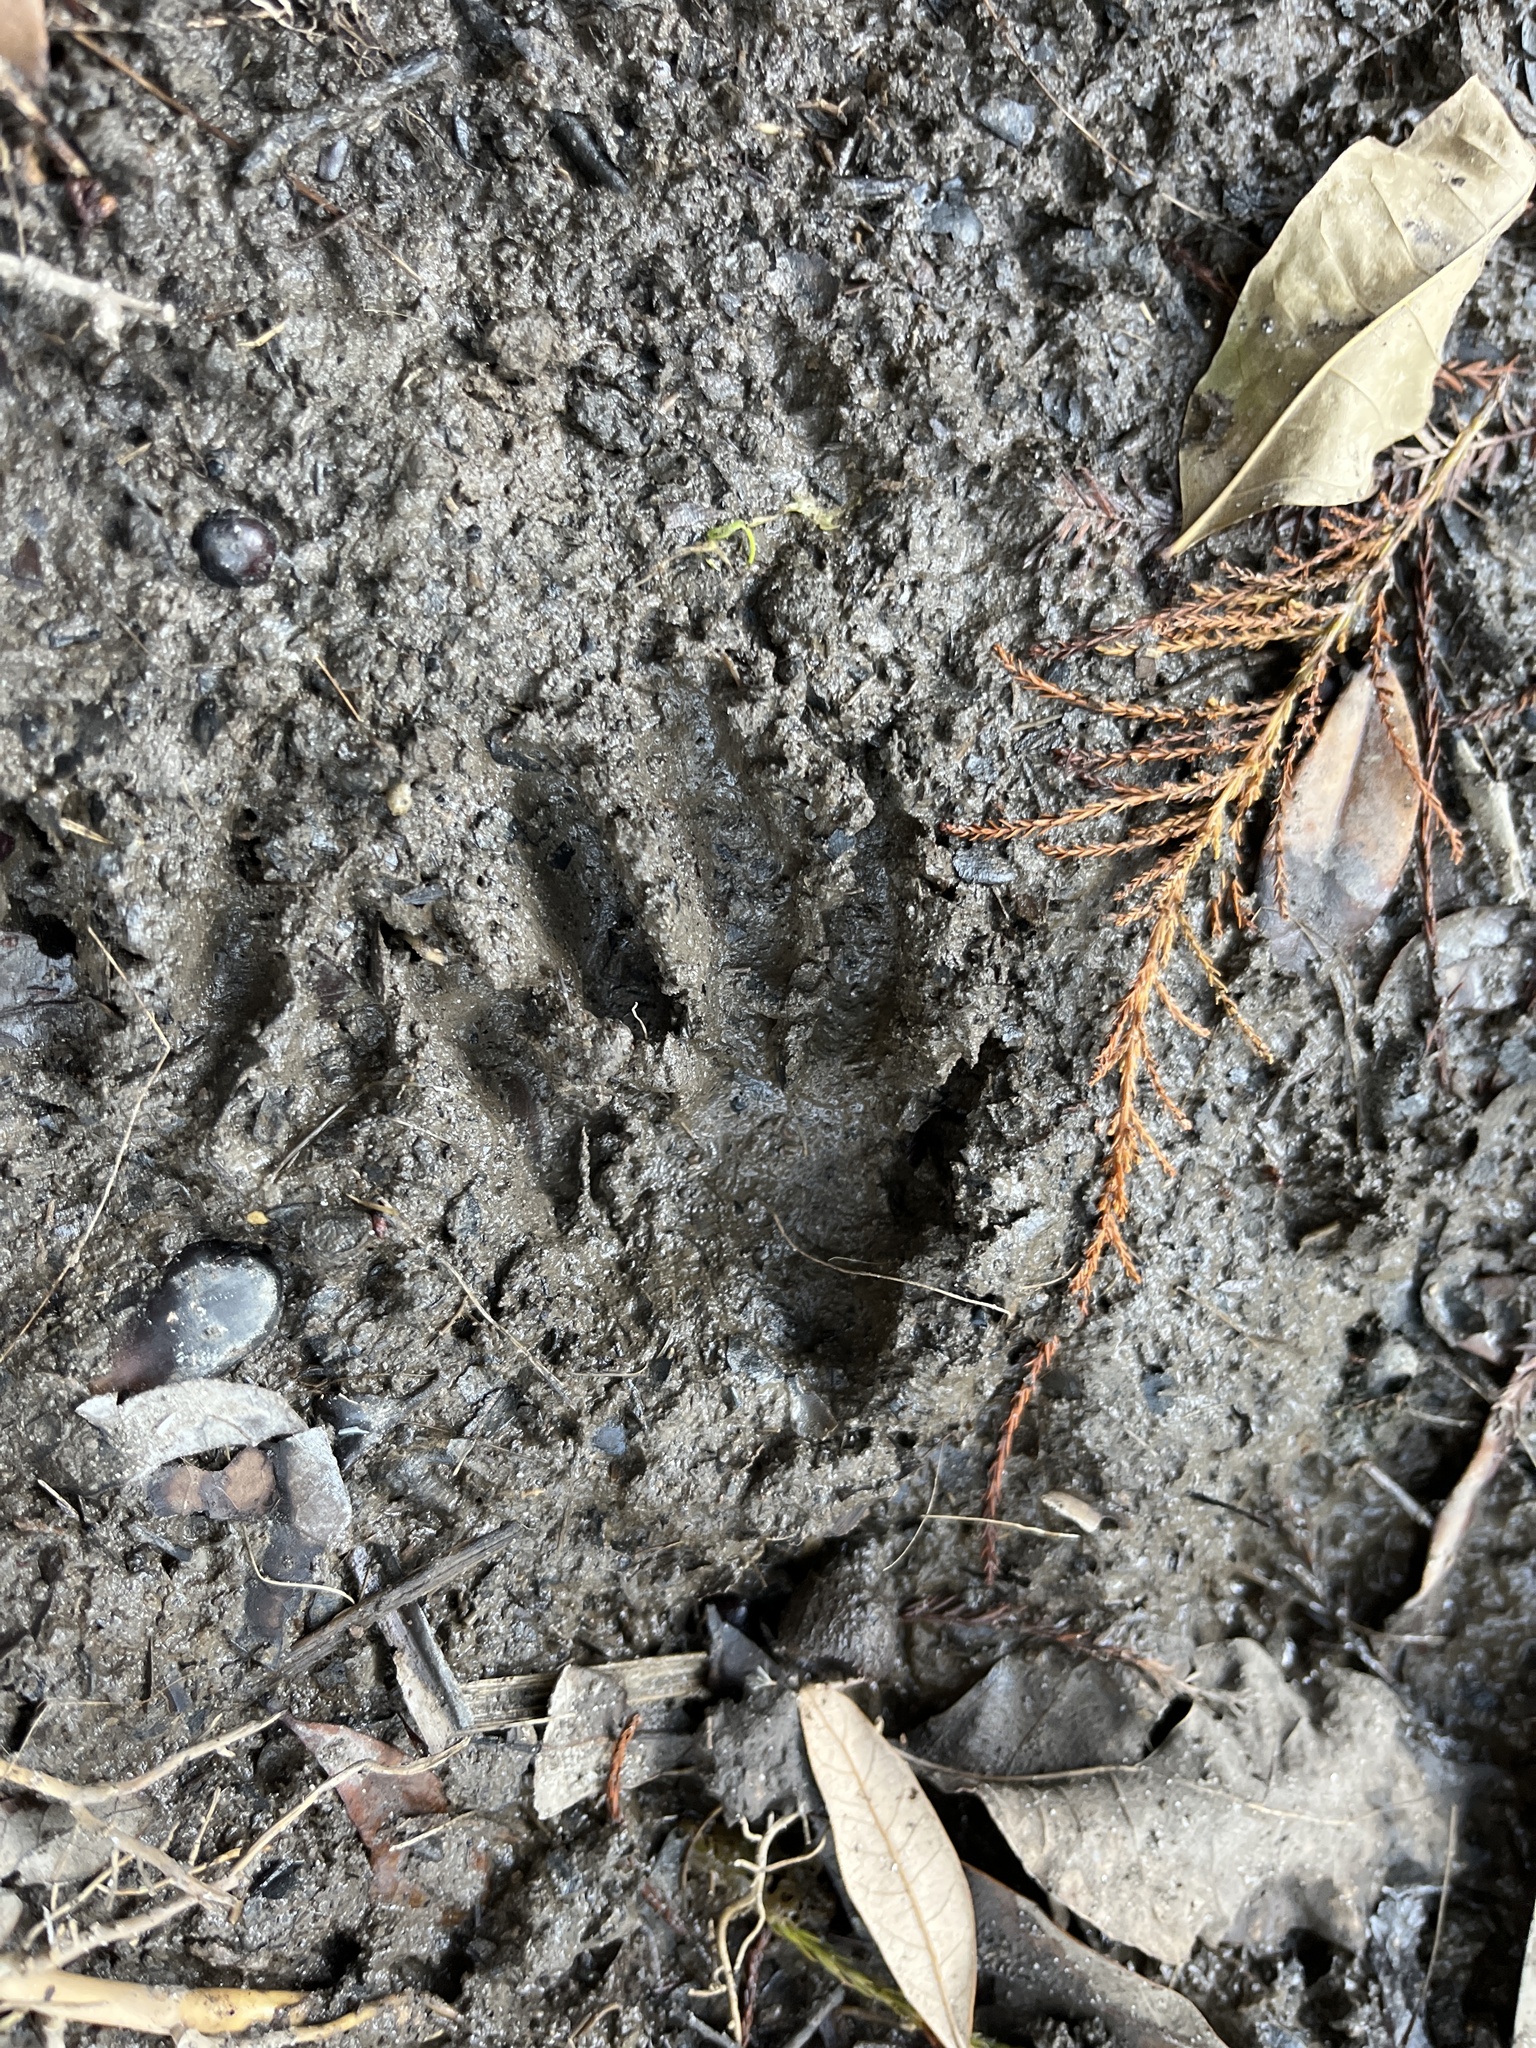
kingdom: Animalia
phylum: Chordata
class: Mammalia
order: Carnivora
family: Procyonidae
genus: Procyon
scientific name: Procyon lotor
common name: Raccoon
